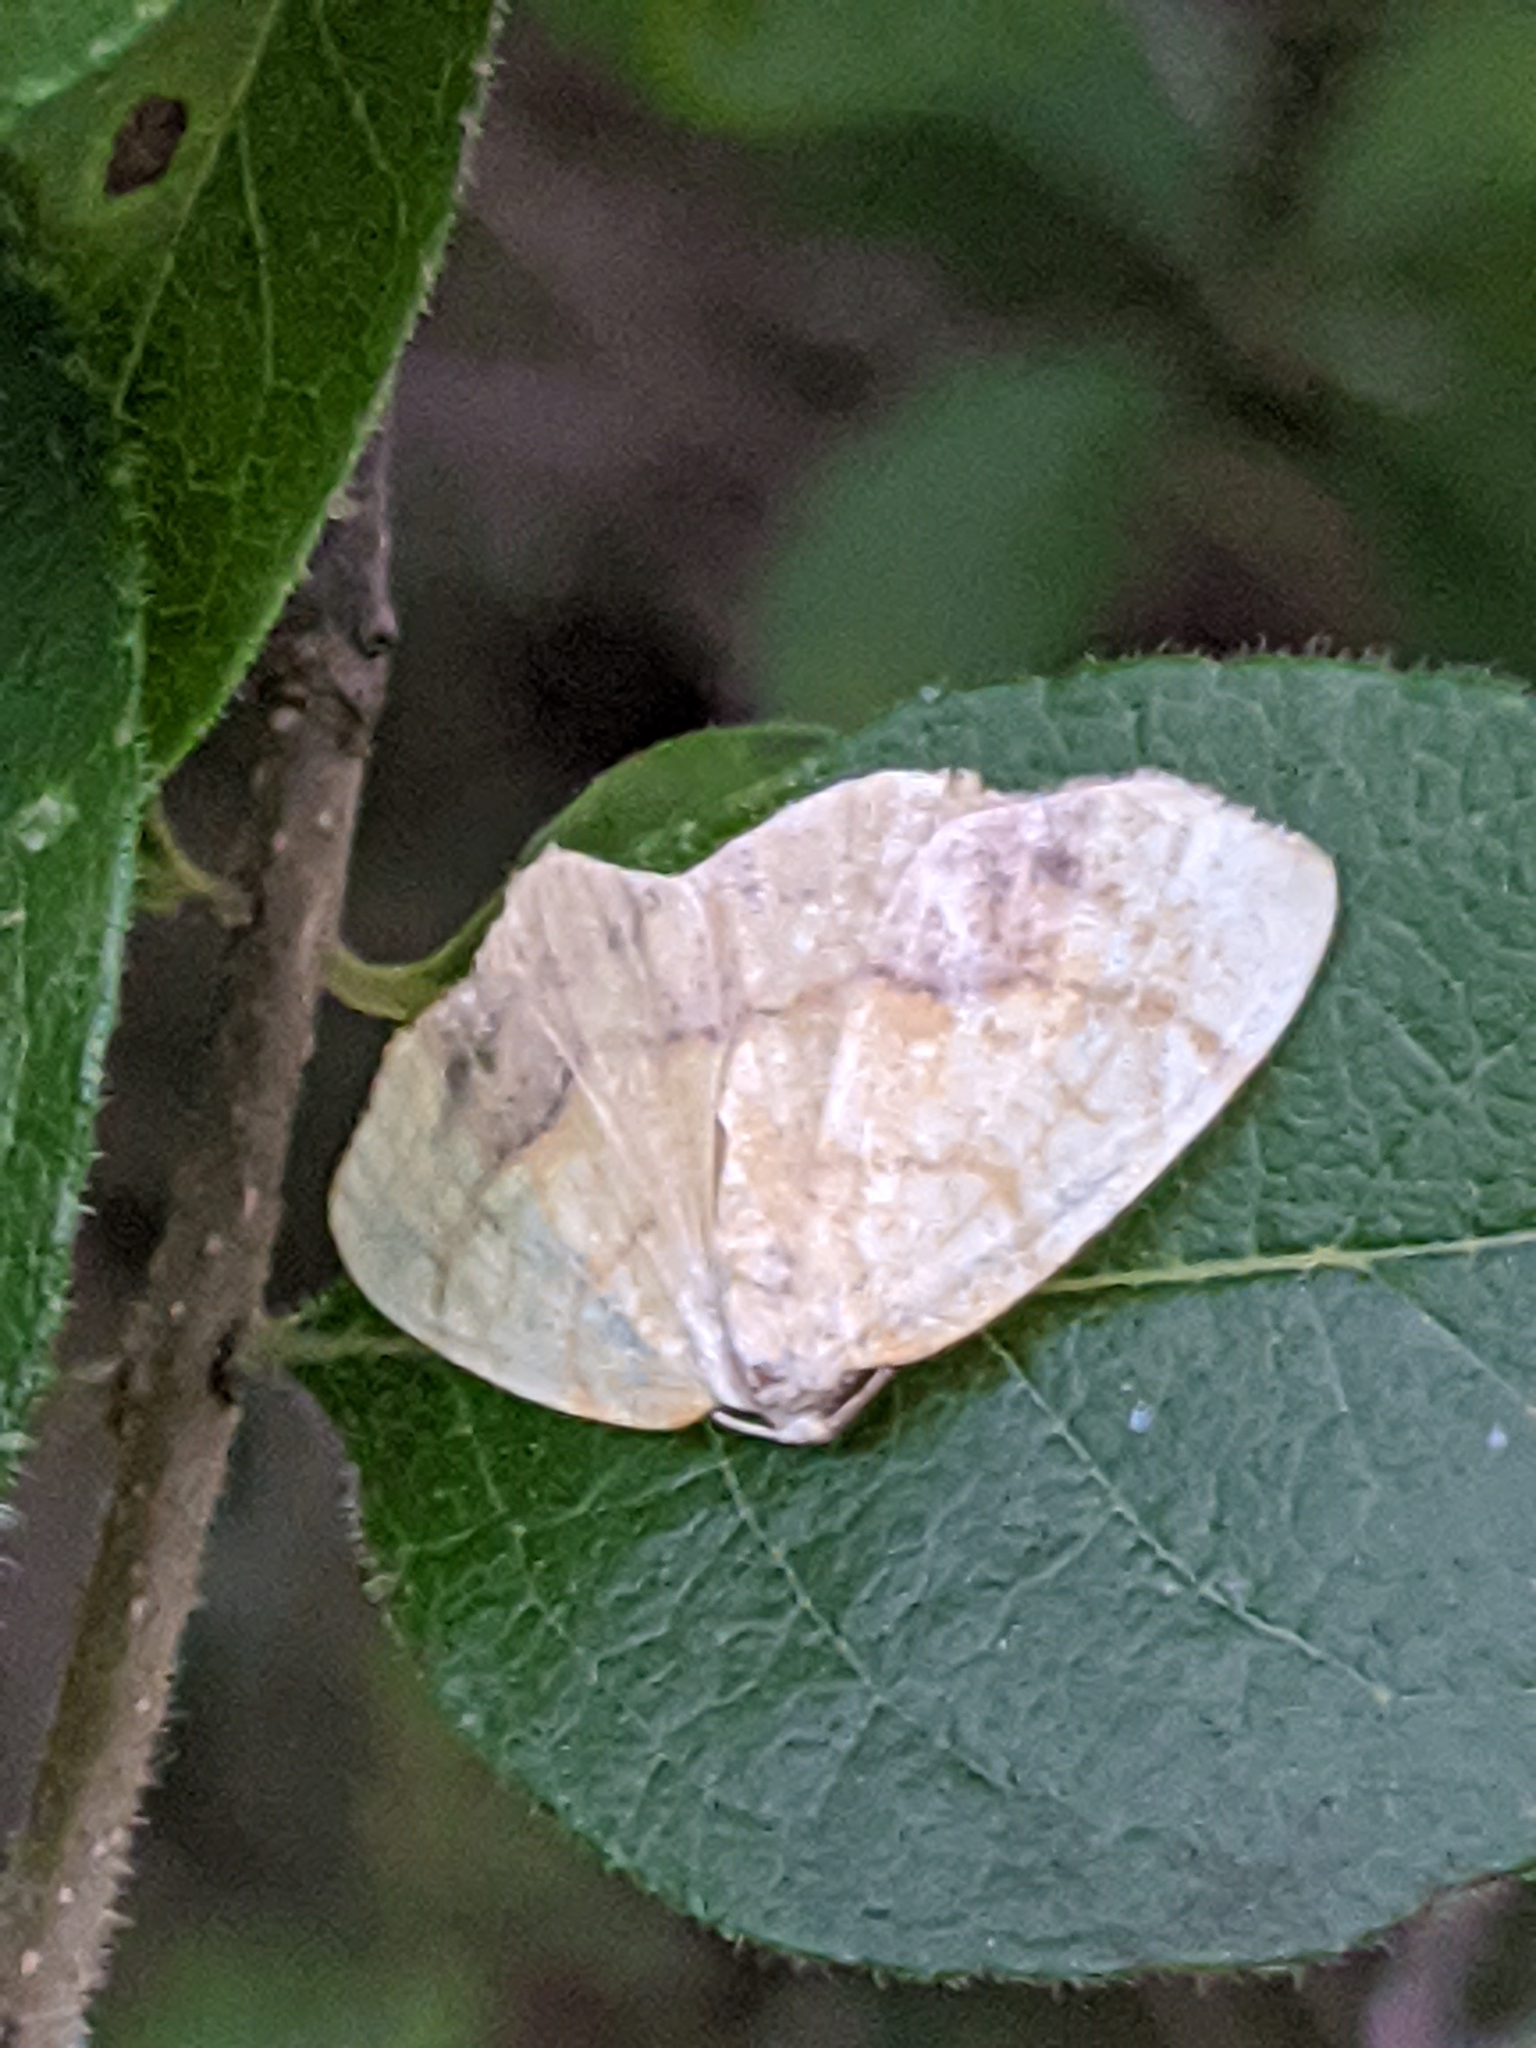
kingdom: Animalia
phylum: Arthropoda
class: Insecta
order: Lepidoptera
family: Geometridae
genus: Nematocampa
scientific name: Nematocampa resistaria
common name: Horned spanworm moth
